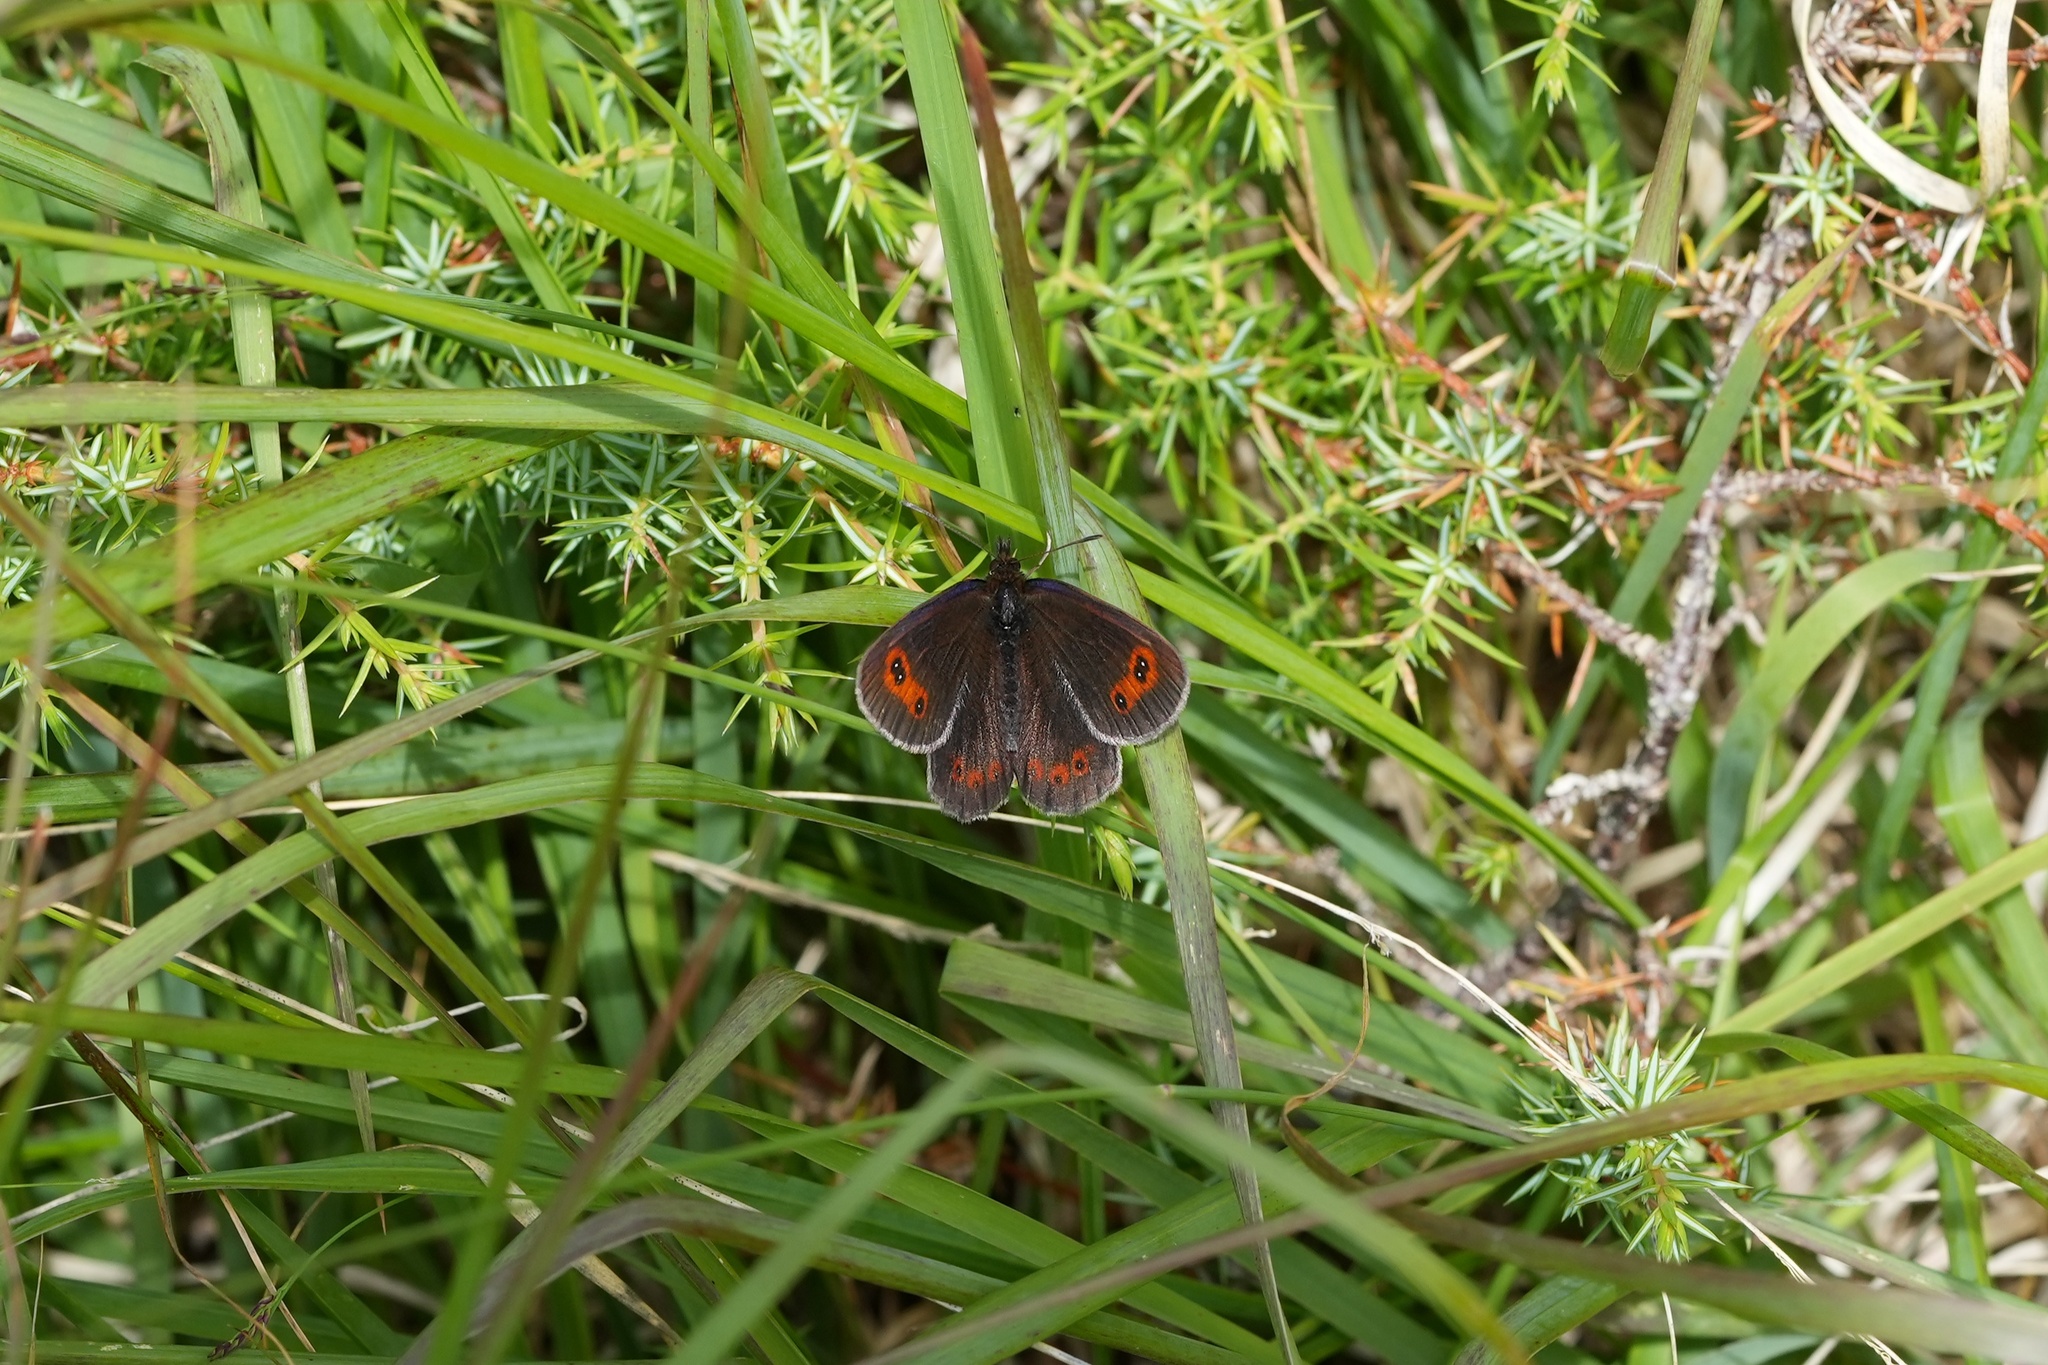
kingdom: Animalia
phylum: Arthropoda
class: Insecta
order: Lepidoptera
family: Nymphalidae
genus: Erebia
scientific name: Erebia aethiops
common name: Scotch argus
